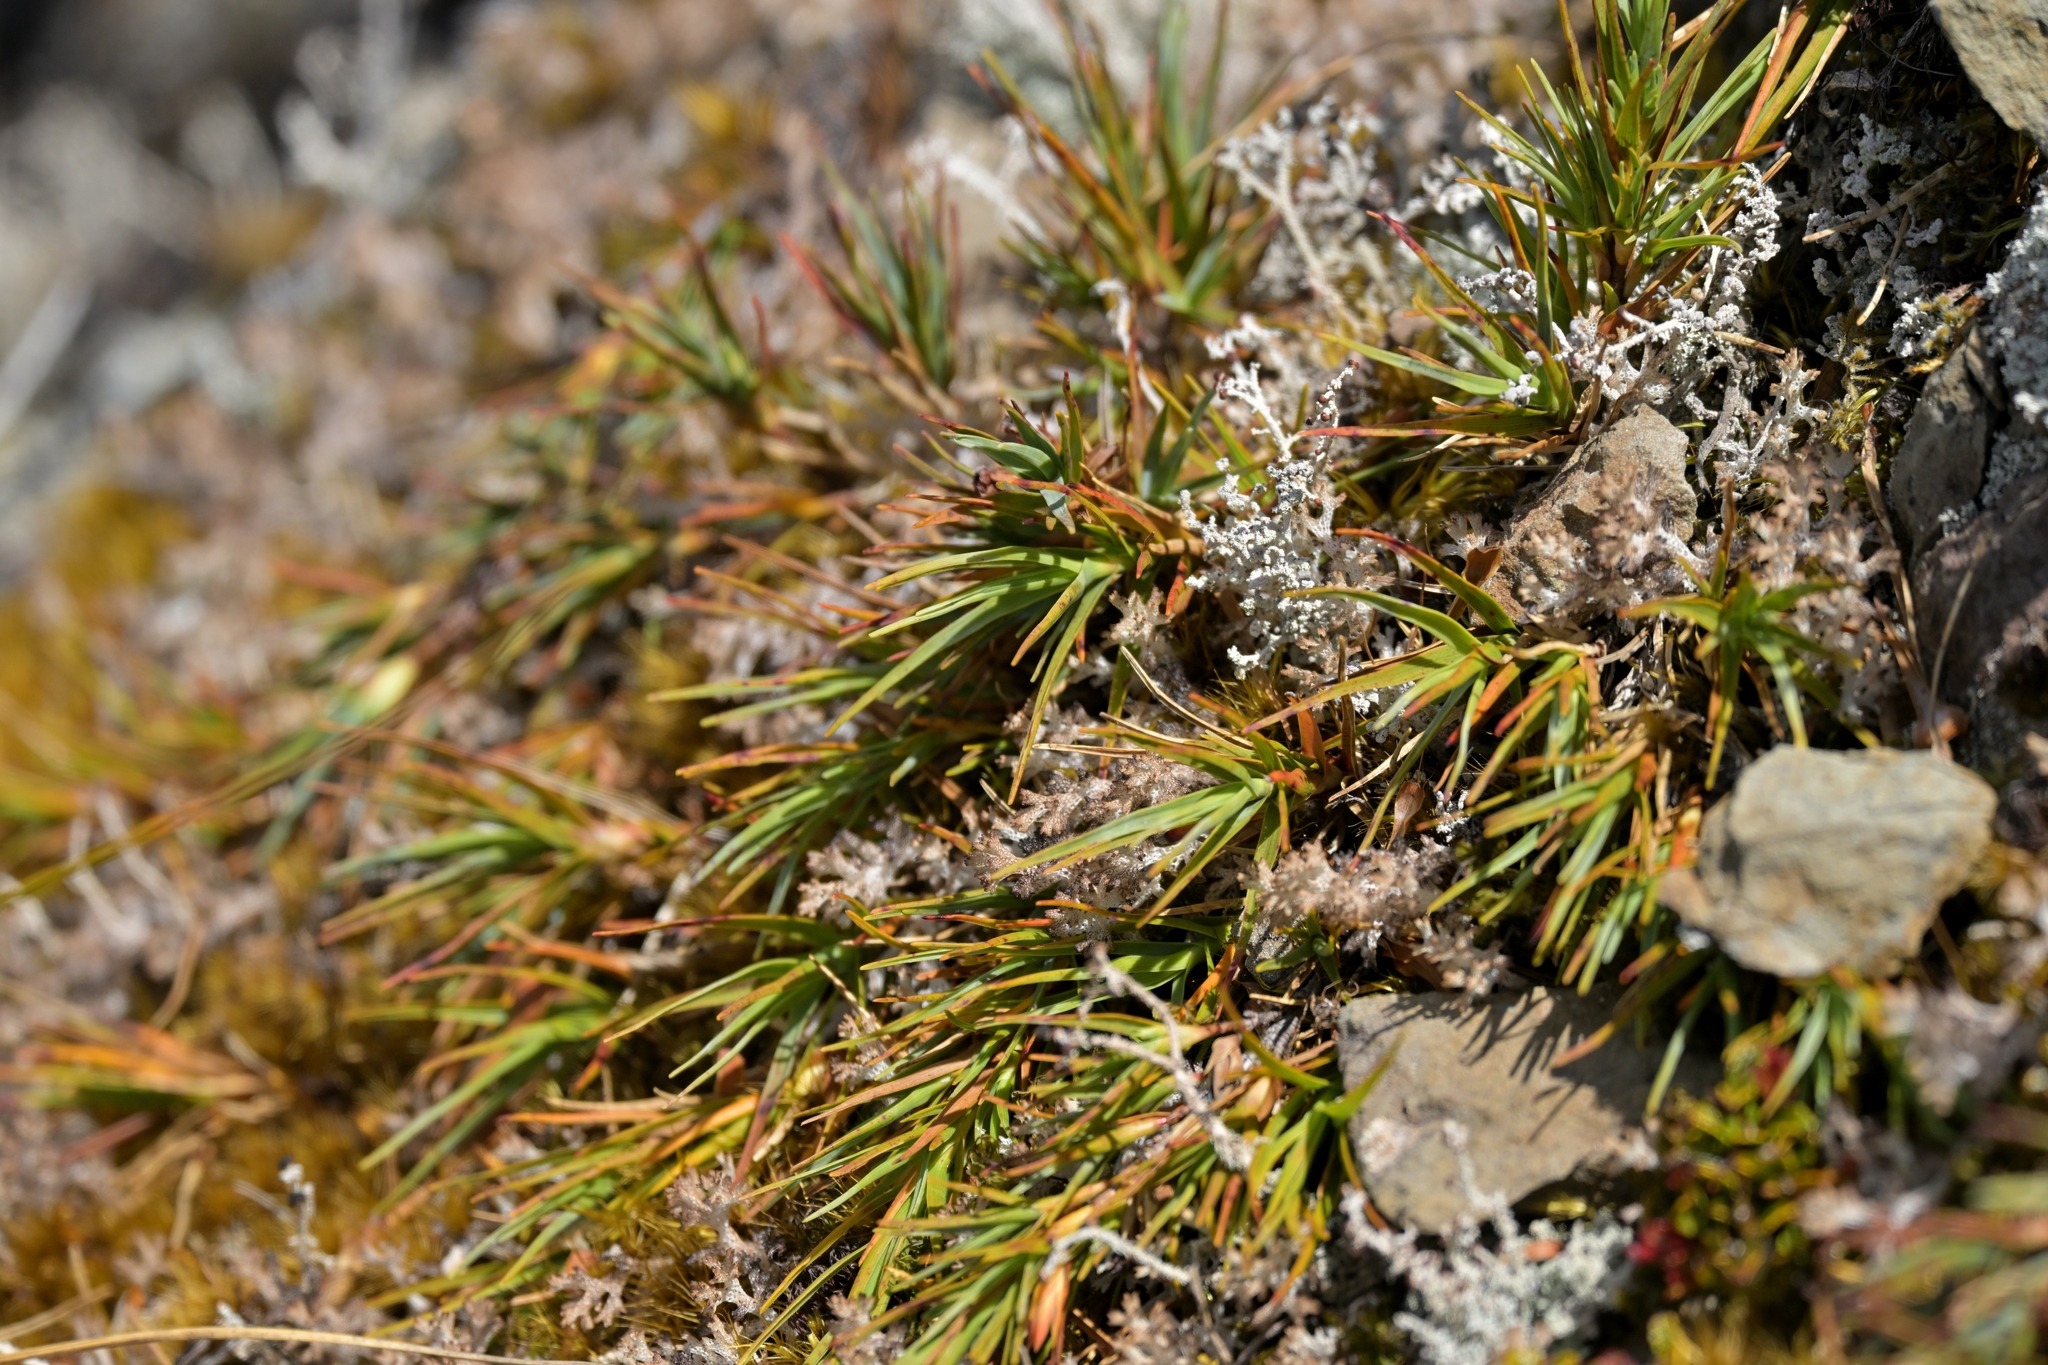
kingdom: Plantae
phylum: Tracheophyta
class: Magnoliopsida
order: Ericales
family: Ericaceae
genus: Dracophyllum
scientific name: Dracophyllum kirkii
